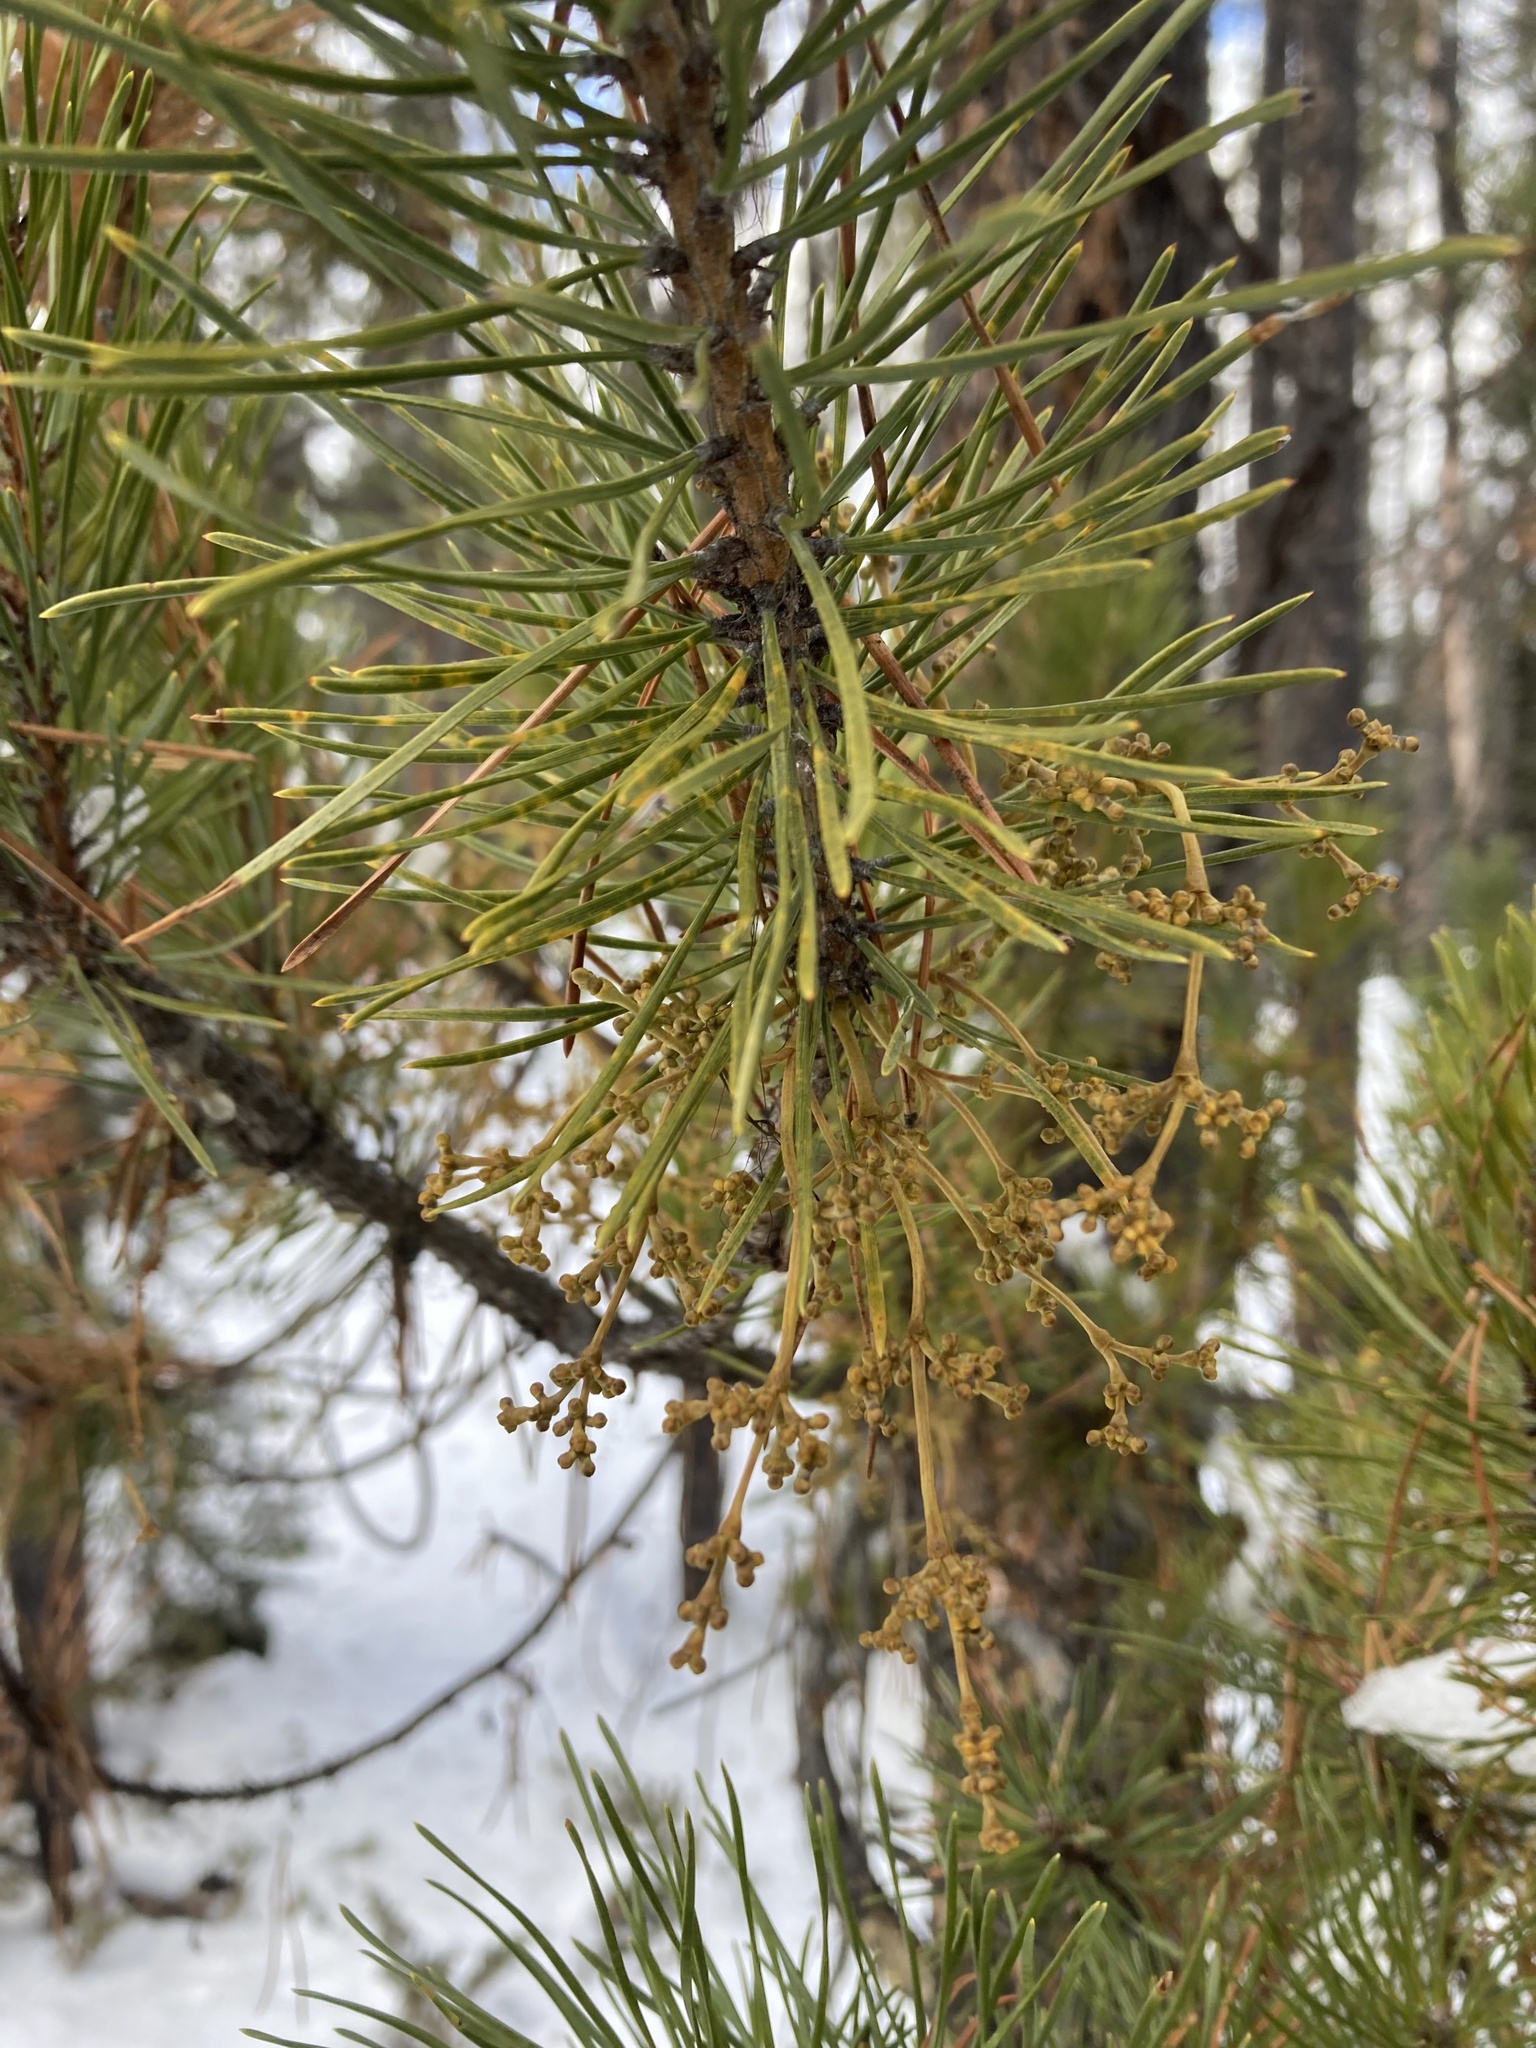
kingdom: Plantae
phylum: Tracheophyta
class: Magnoliopsida
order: Santalales
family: Viscaceae
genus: Arceuthobium
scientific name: Arceuthobium americanum
